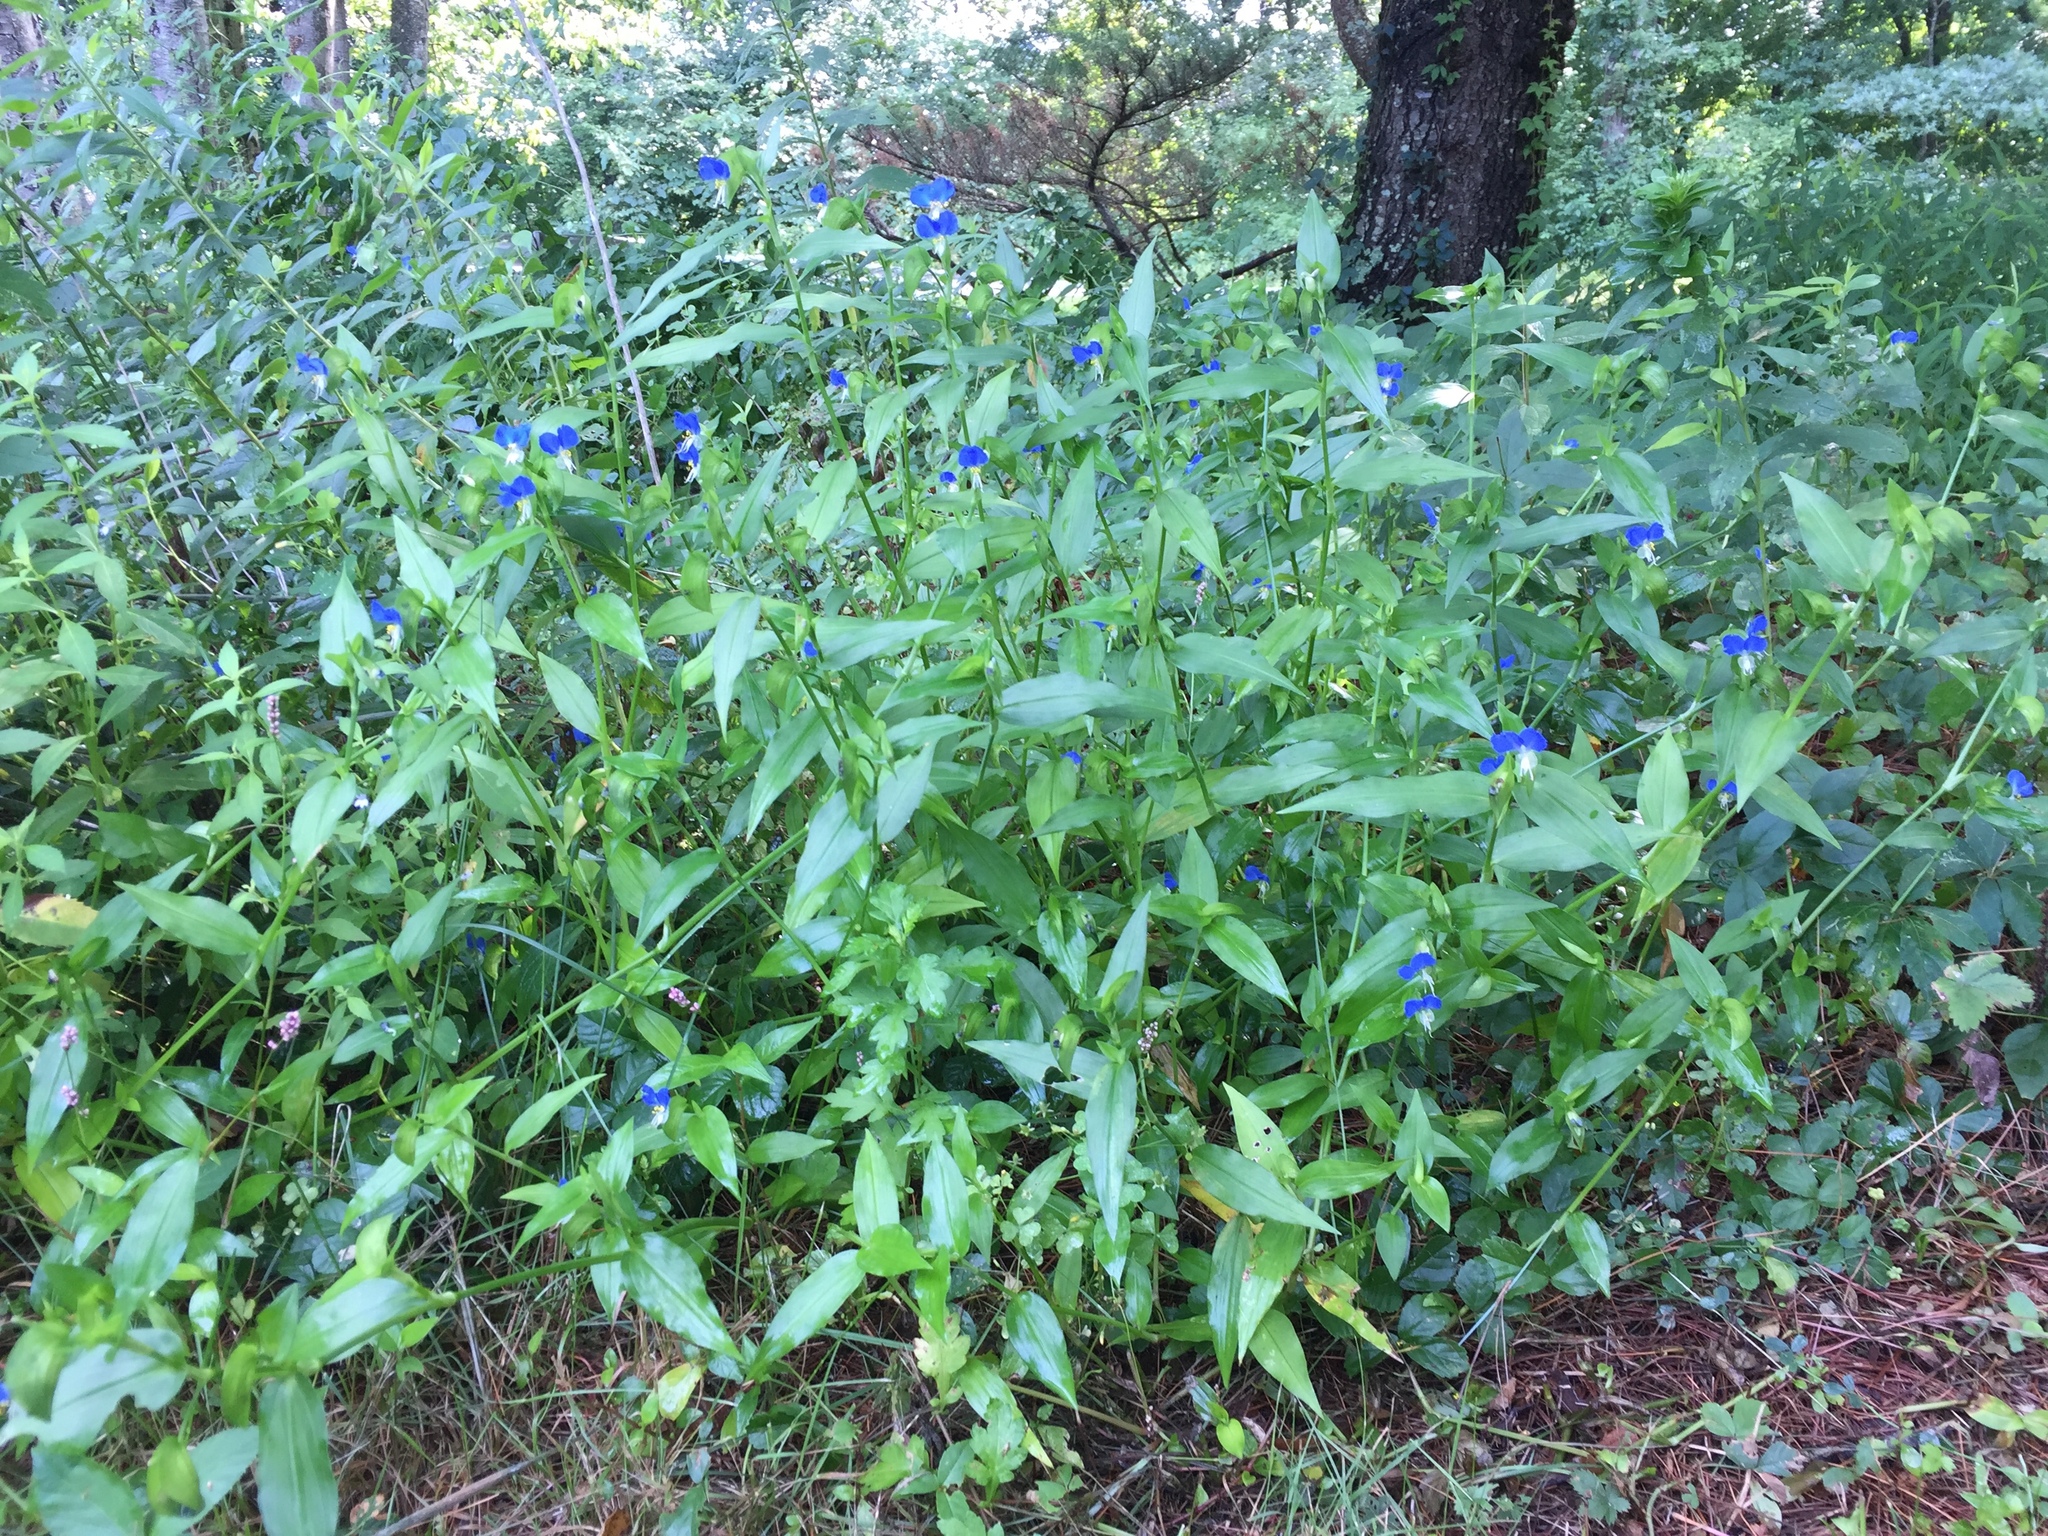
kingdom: Plantae
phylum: Tracheophyta
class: Liliopsida
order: Commelinales
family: Commelinaceae
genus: Commelina
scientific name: Commelina communis
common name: Asiatic dayflower
